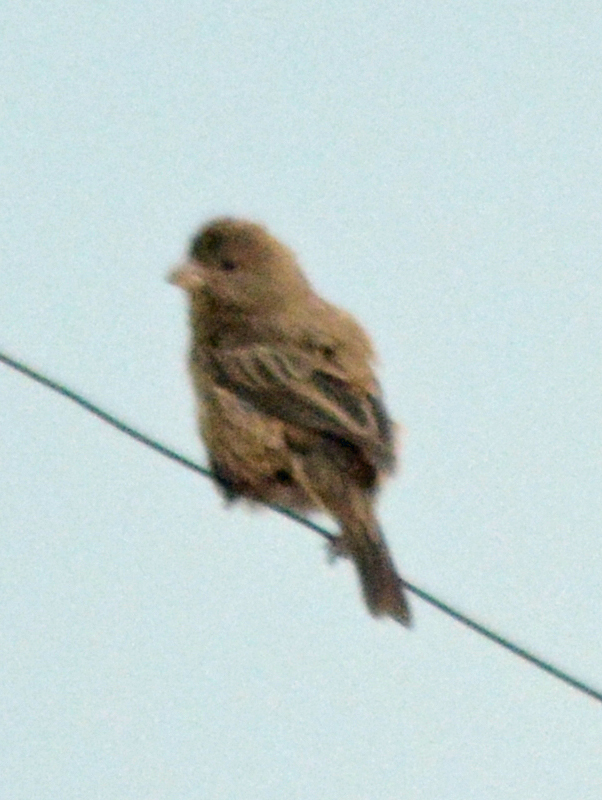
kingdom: Animalia
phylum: Chordata
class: Aves
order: Passeriformes
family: Fringillidae
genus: Haemorhous
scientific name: Haemorhous mexicanus
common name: House finch
